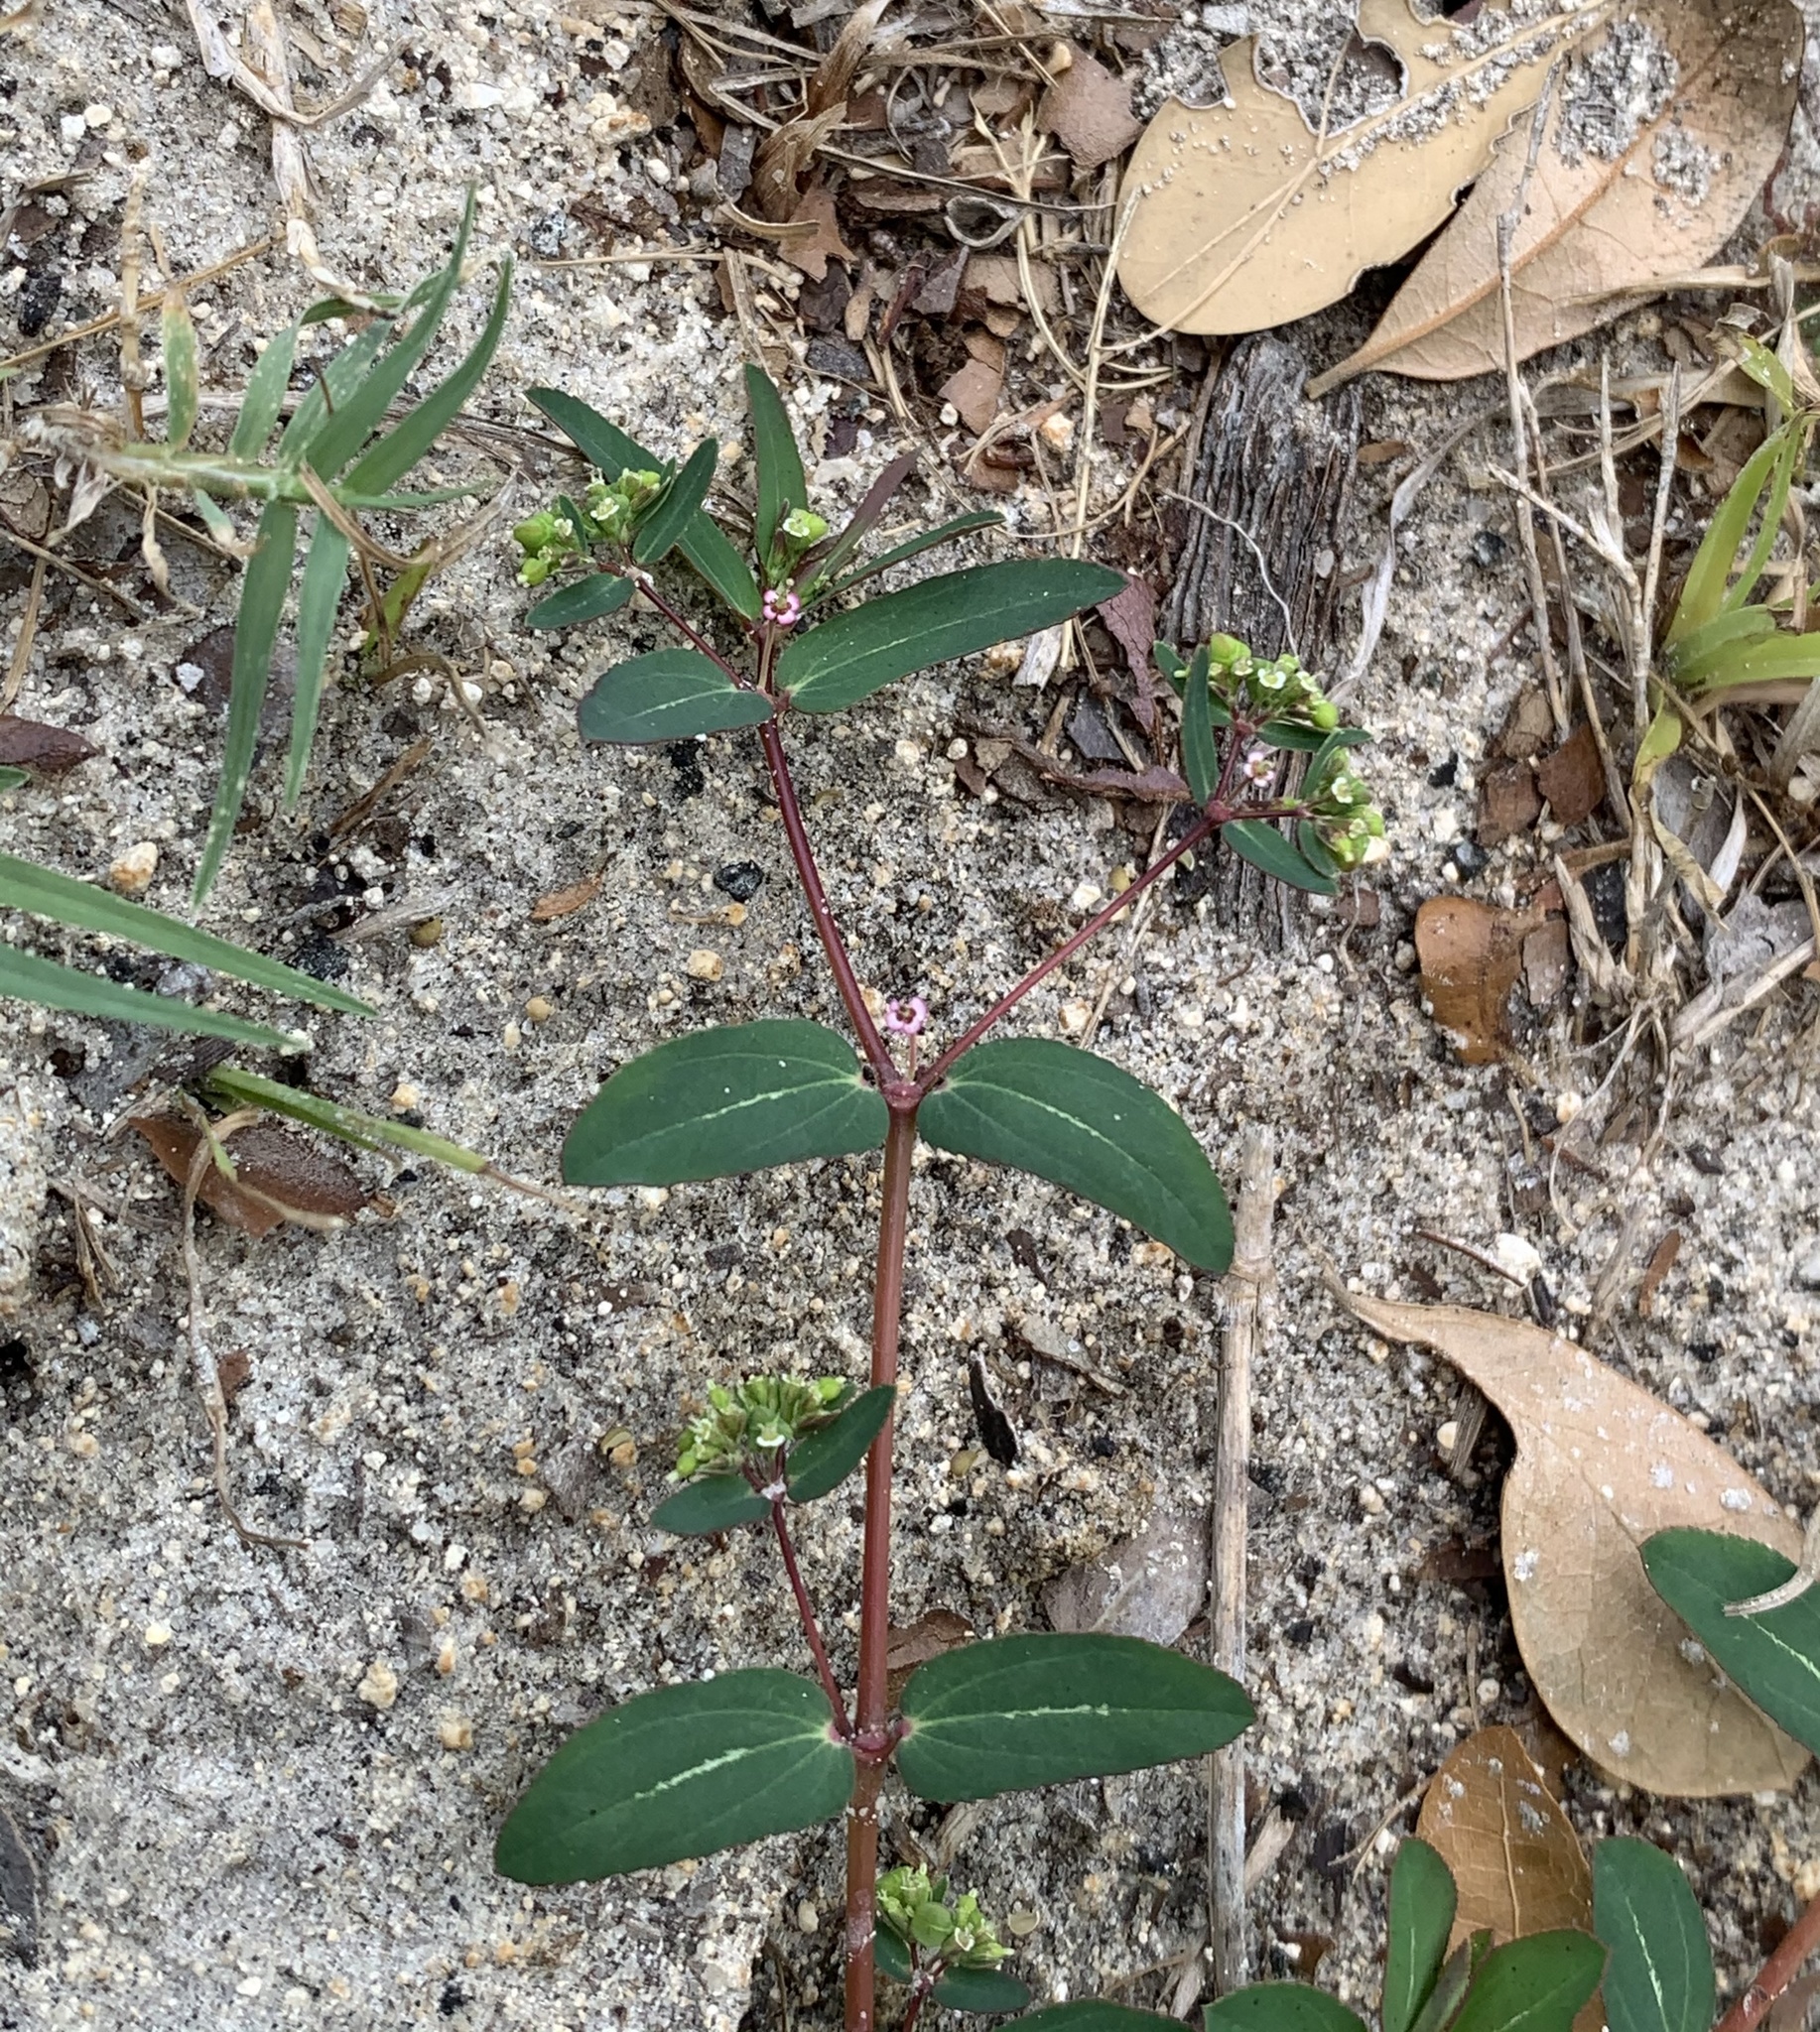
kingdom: Plantae
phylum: Tracheophyta
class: Magnoliopsida
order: Malpighiales
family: Euphorbiaceae
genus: Euphorbia
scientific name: Euphorbia hyssopifolia
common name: Hyssopleaf sandmat
